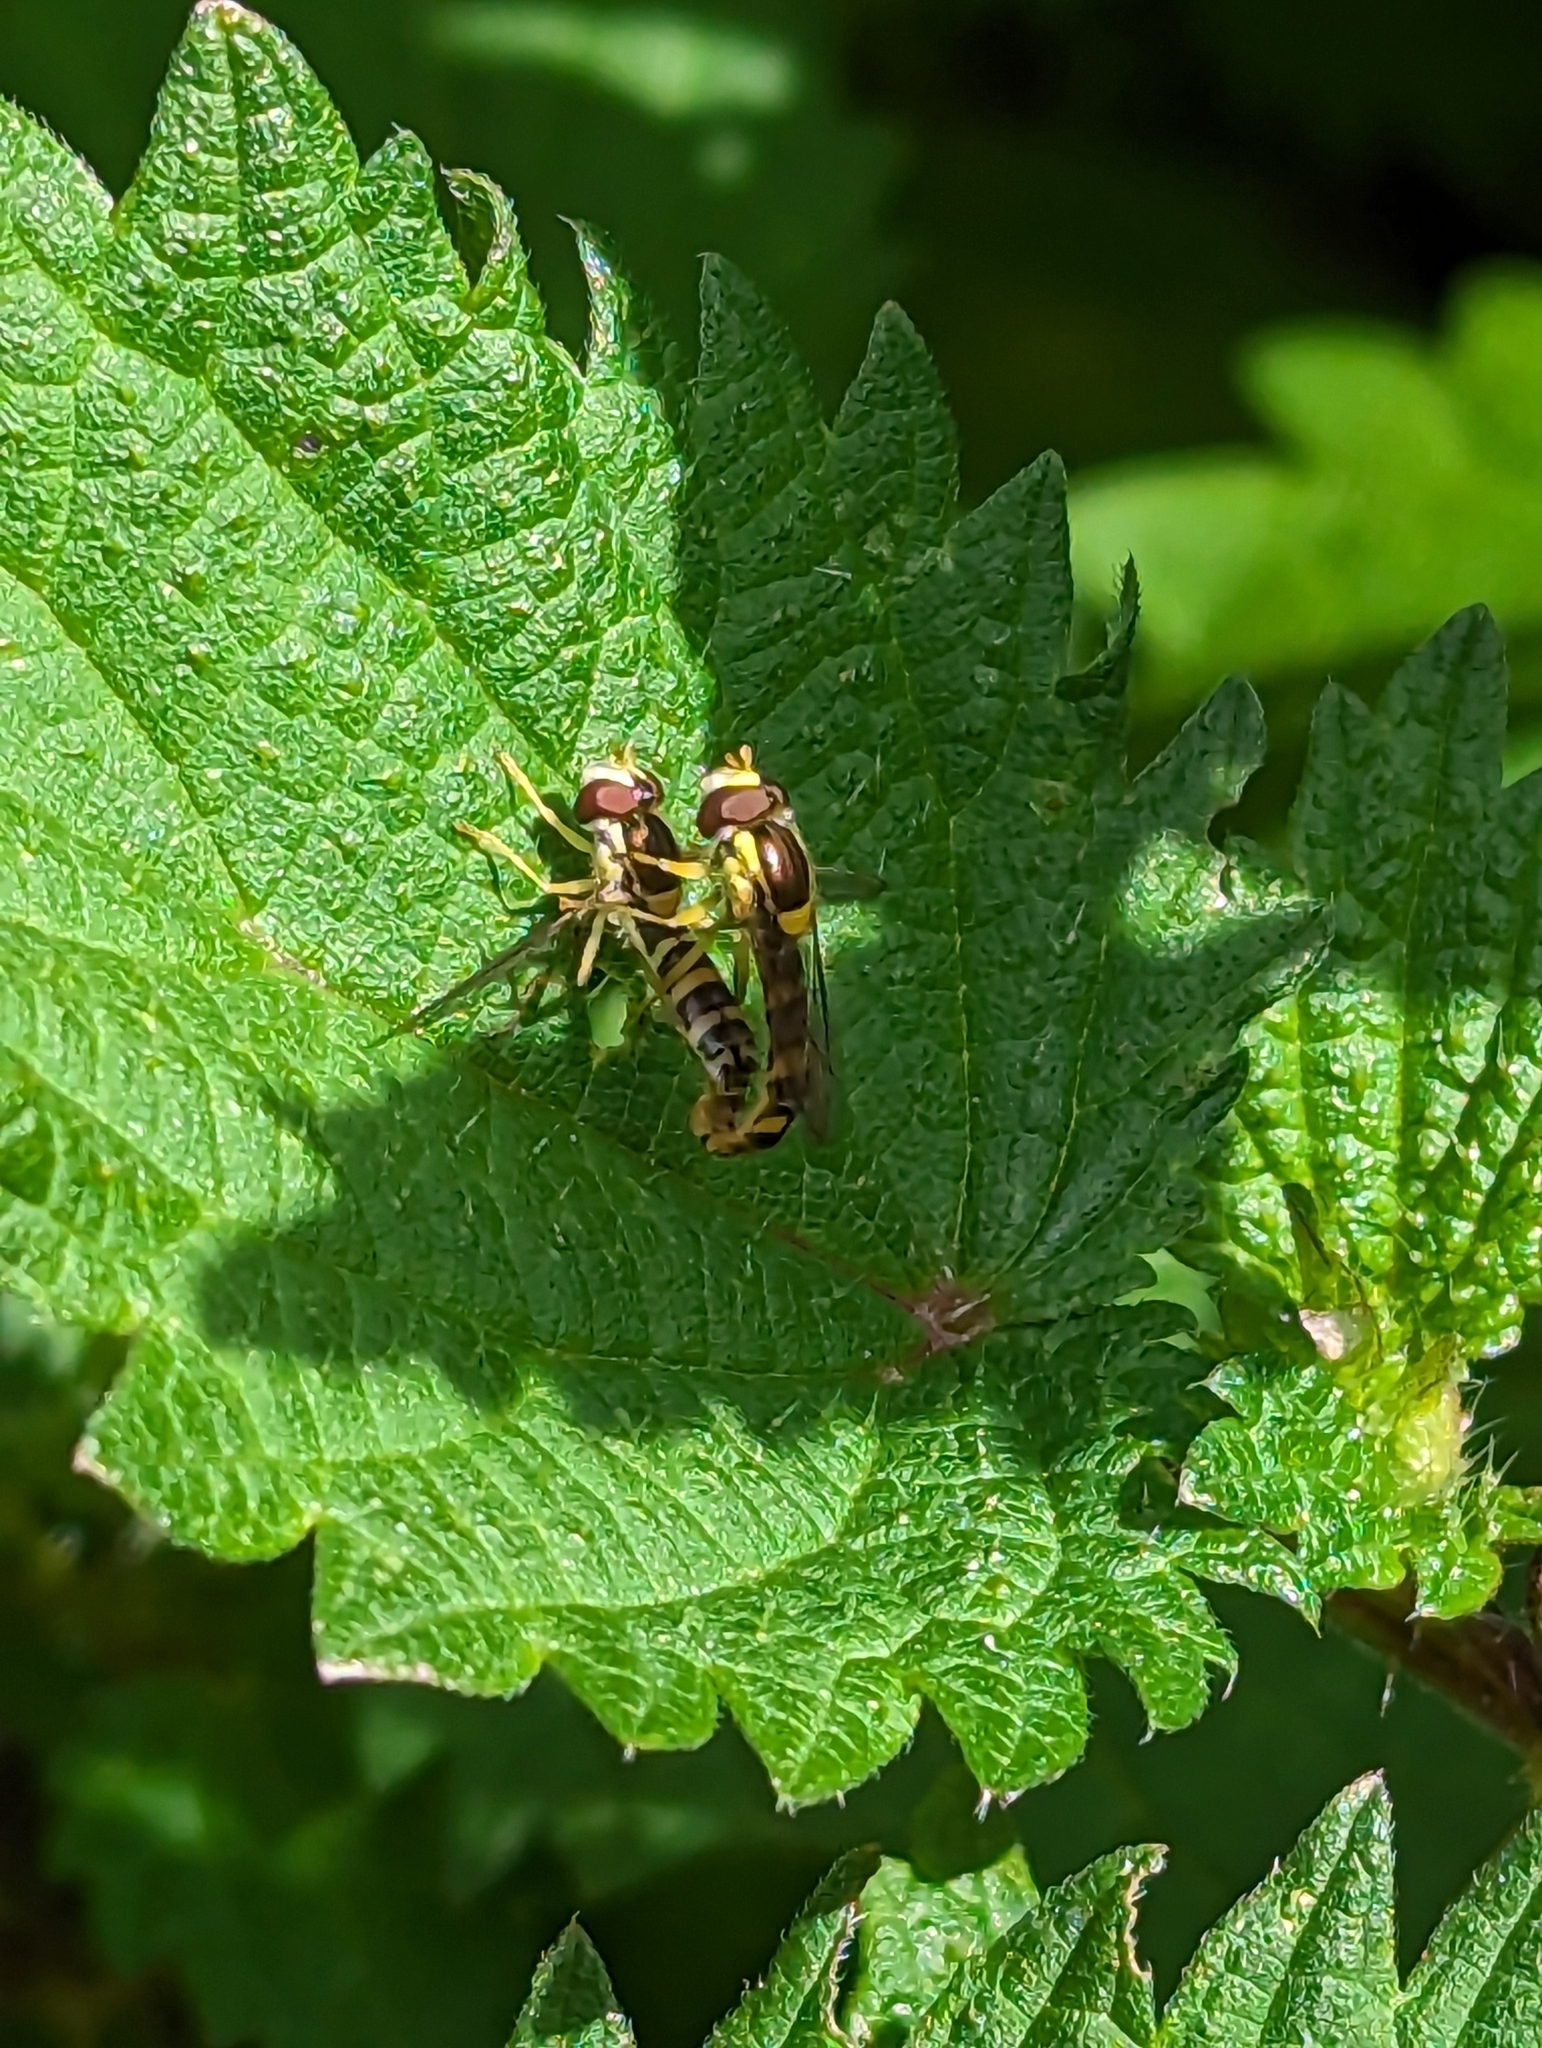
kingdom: Animalia
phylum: Arthropoda
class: Insecta
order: Diptera
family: Syrphidae
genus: Sphaerophoria
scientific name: Sphaerophoria scripta
